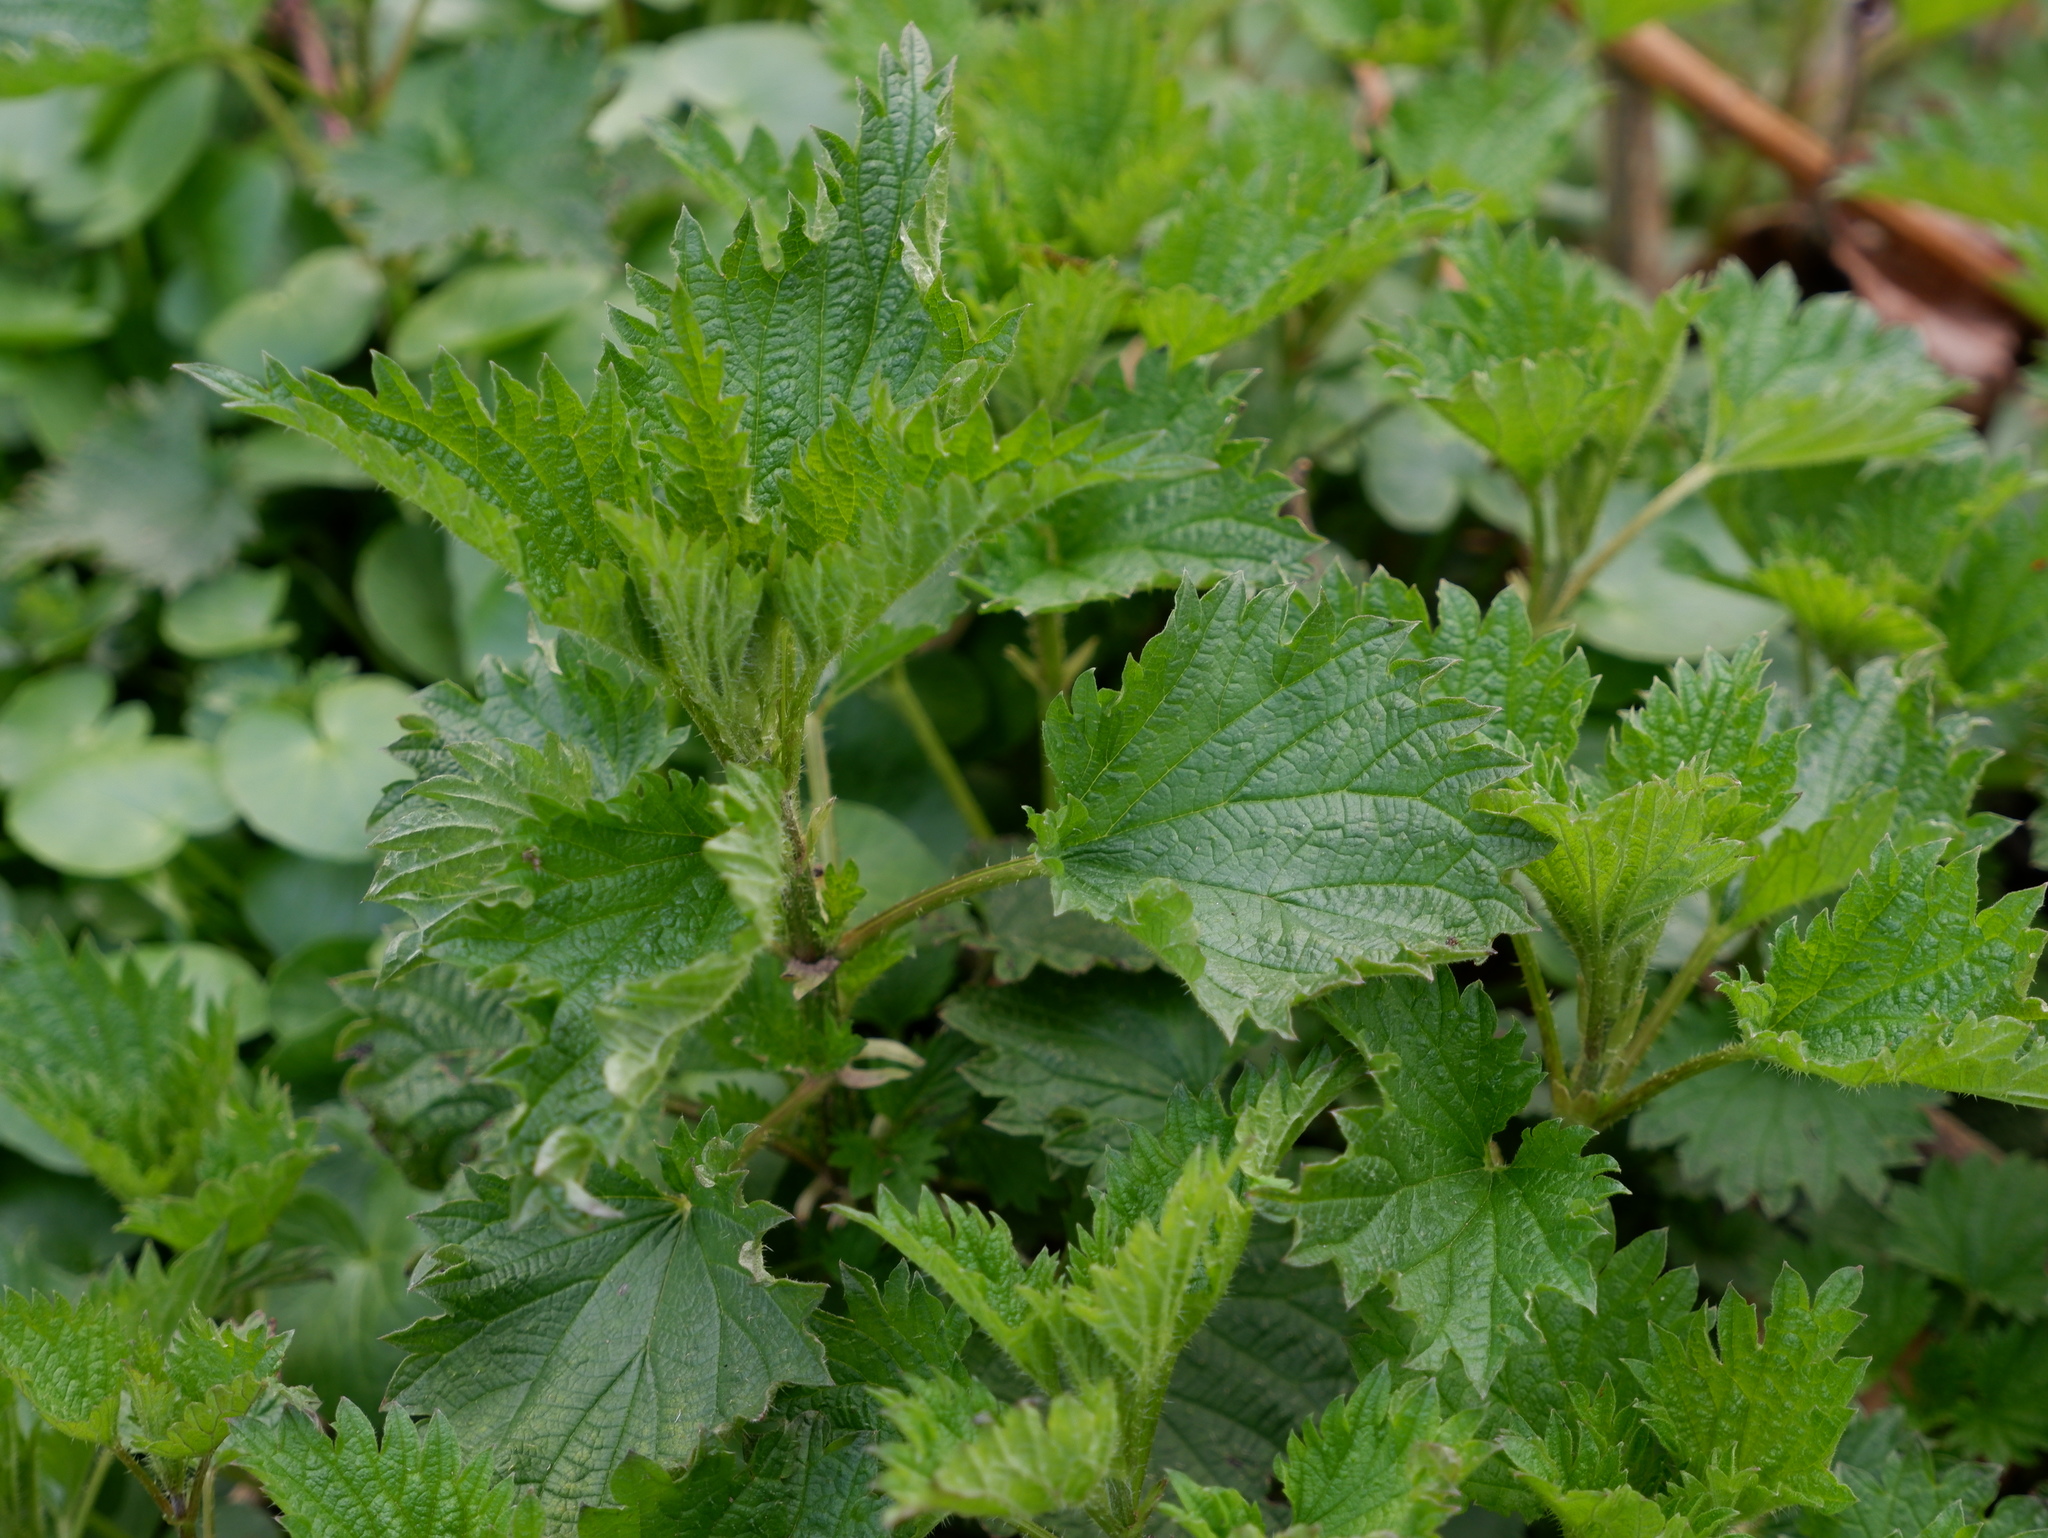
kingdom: Plantae
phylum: Tracheophyta
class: Magnoliopsida
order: Rosales
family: Urticaceae
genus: Urtica
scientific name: Urtica dioica
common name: Common nettle
